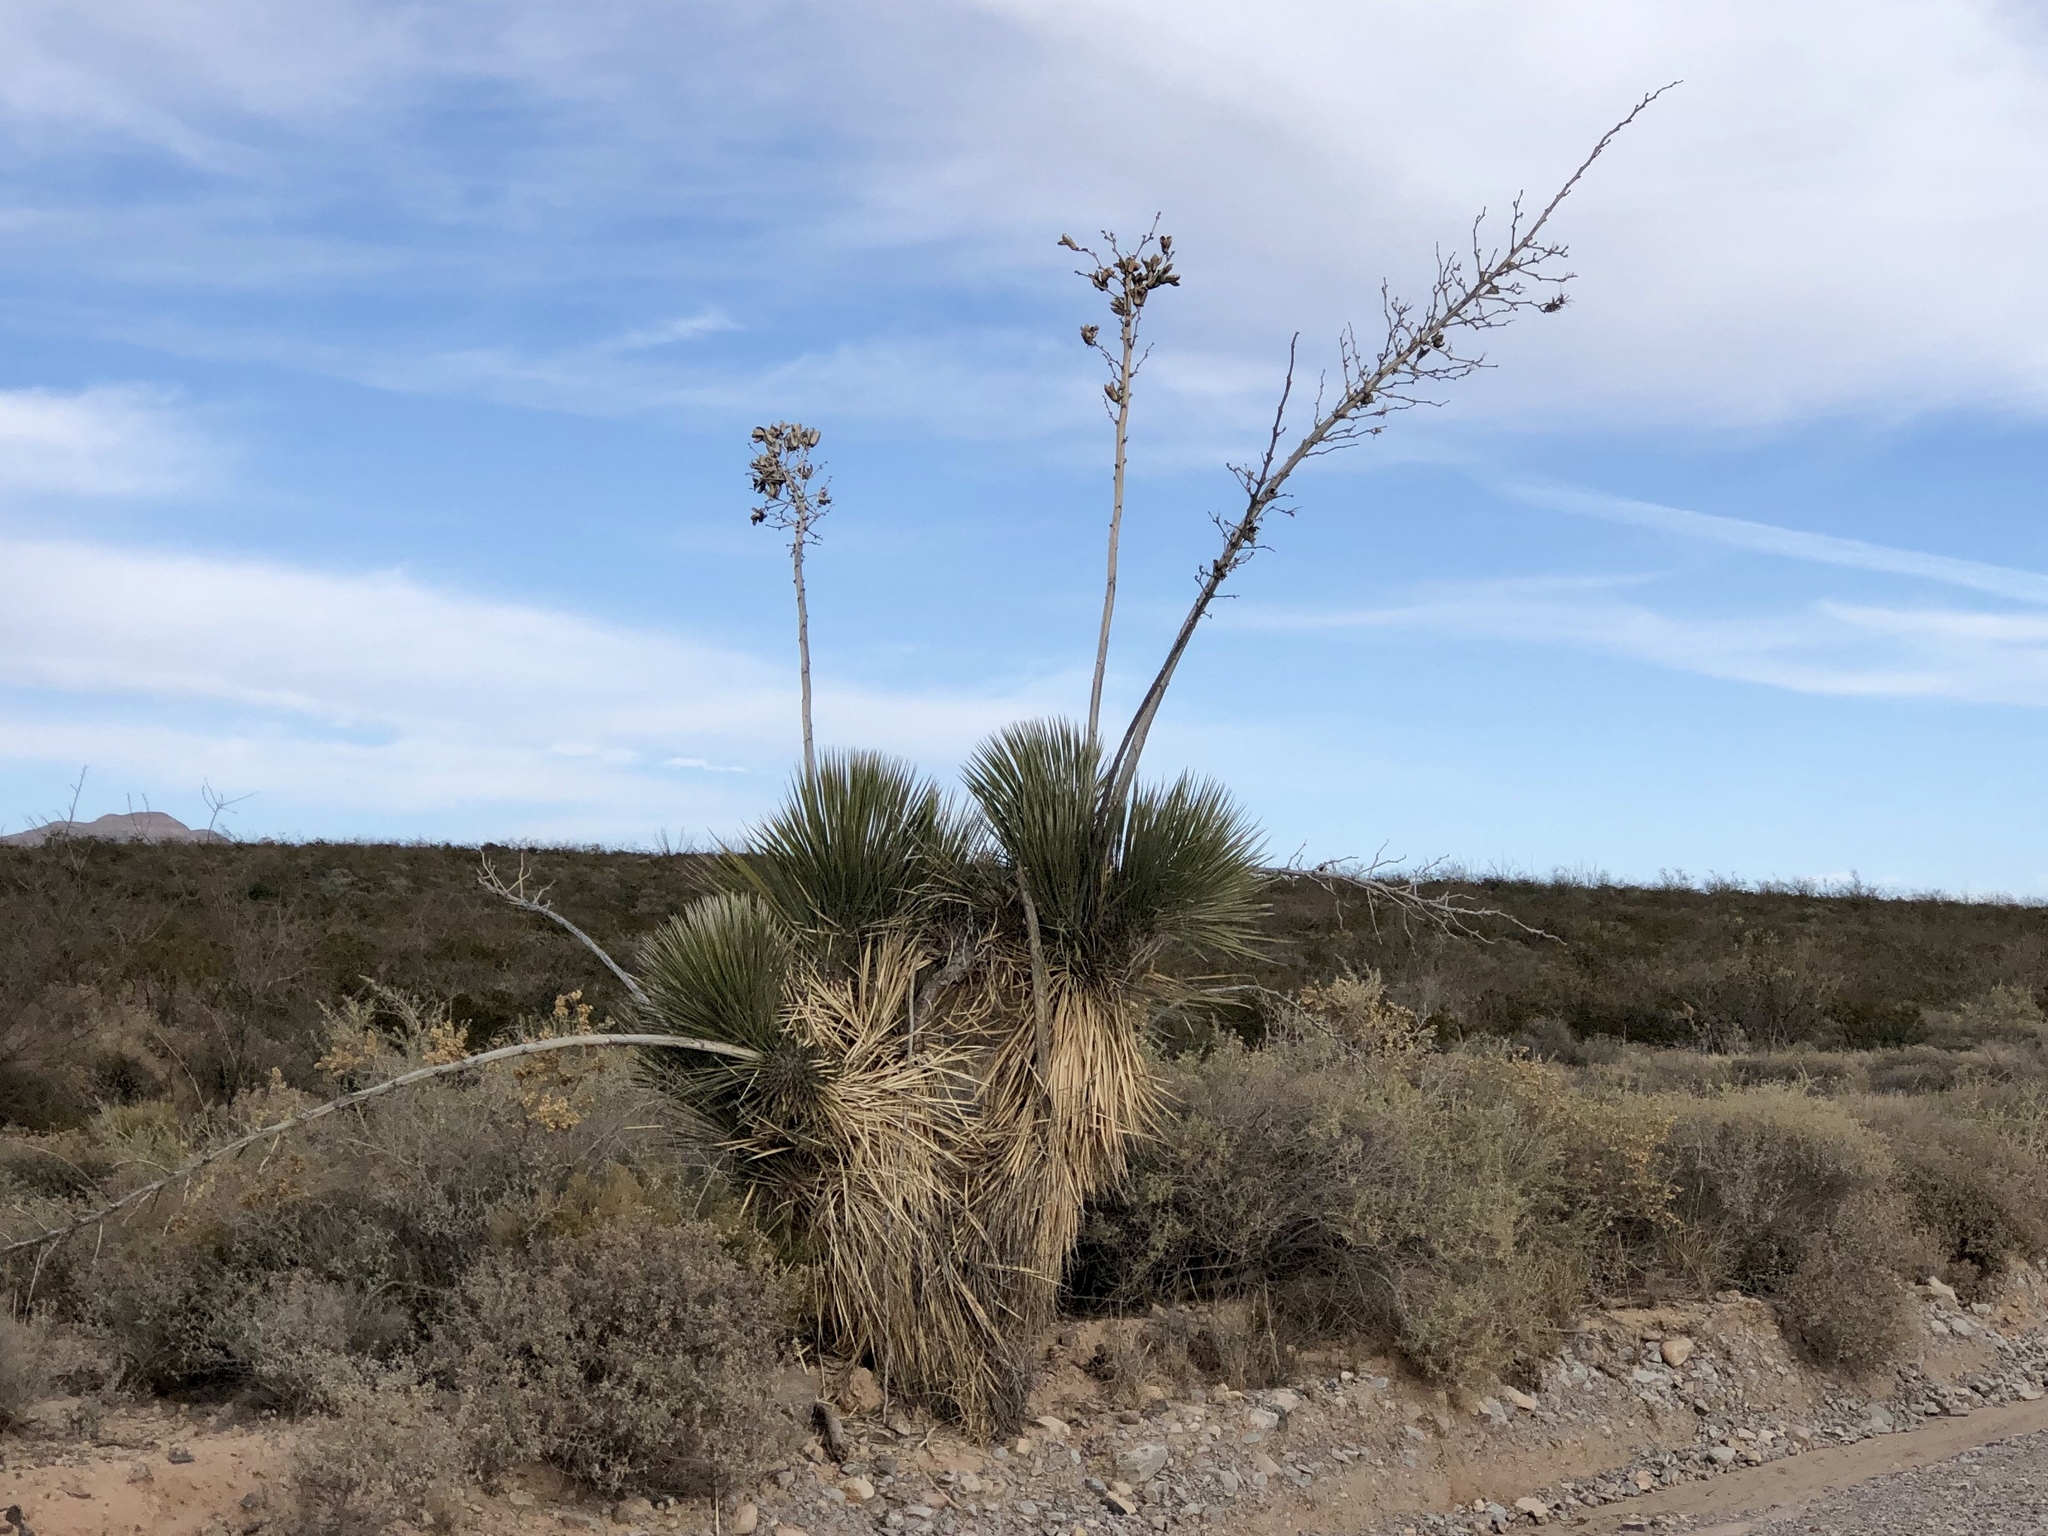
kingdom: Plantae
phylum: Tracheophyta
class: Liliopsida
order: Asparagales
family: Asparagaceae
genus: Yucca
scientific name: Yucca elata
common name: Palmella
